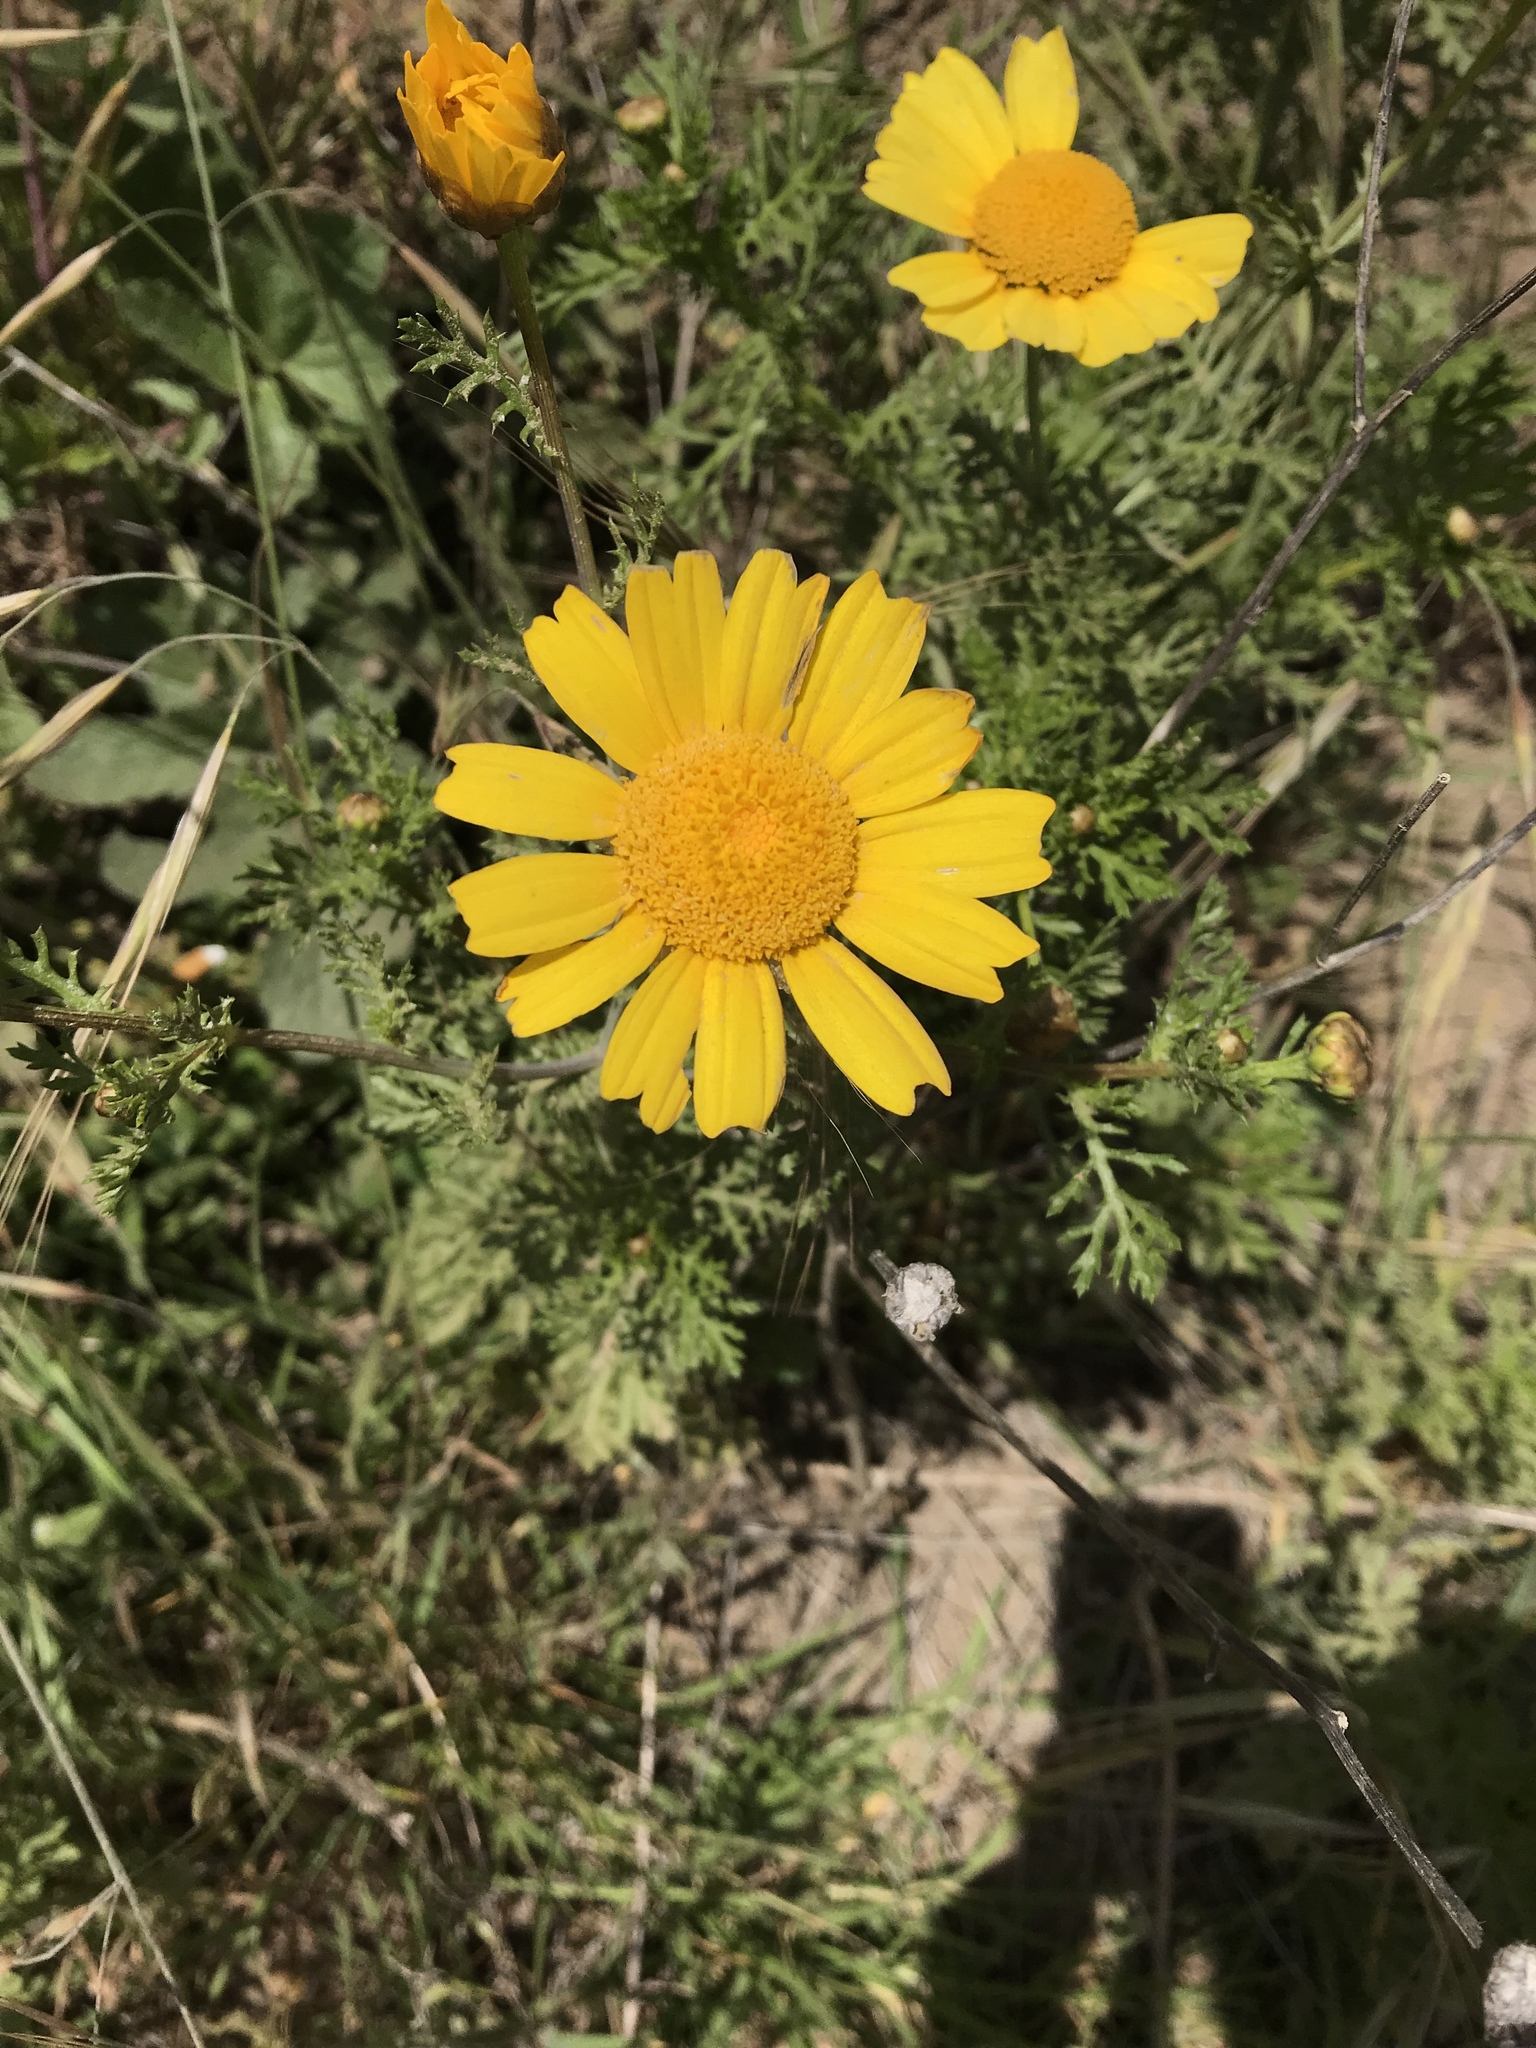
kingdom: Plantae
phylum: Tracheophyta
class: Magnoliopsida
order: Asterales
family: Asteraceae
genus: Glebionis
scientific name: Glebionis coronaria
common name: Crowndaisy
